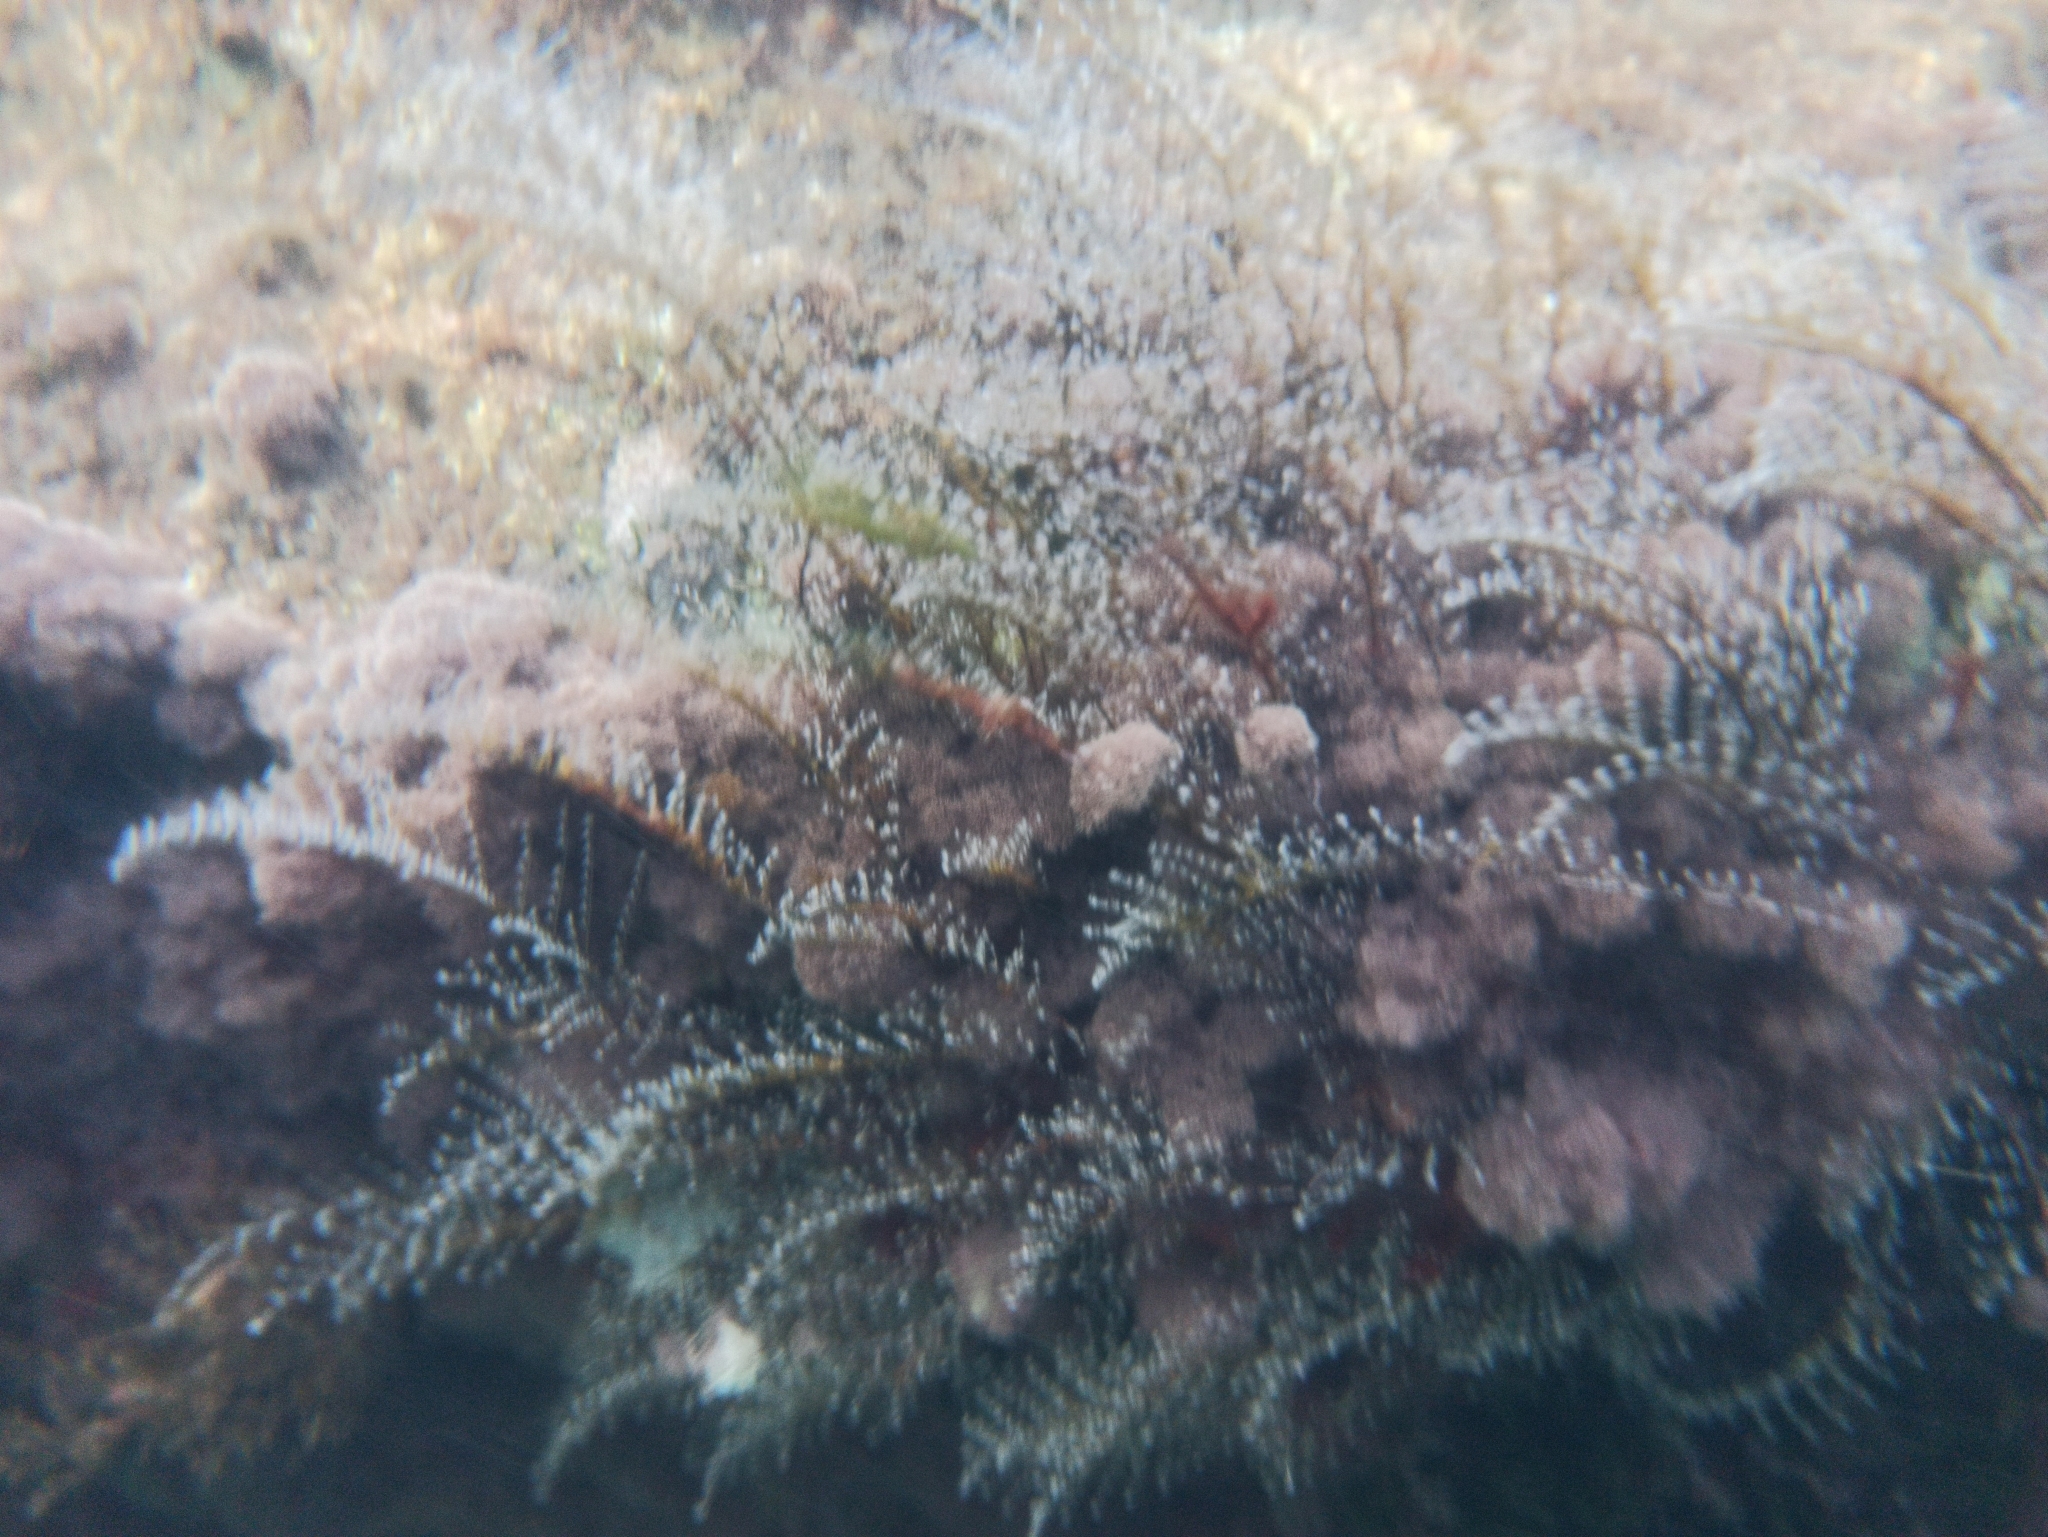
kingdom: Animalia
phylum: Cnidaria
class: Hydrozoa
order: Anthoathecata
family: Pennariidae
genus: Pennaria
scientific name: Pennaria disticha
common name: Feather hydroid
